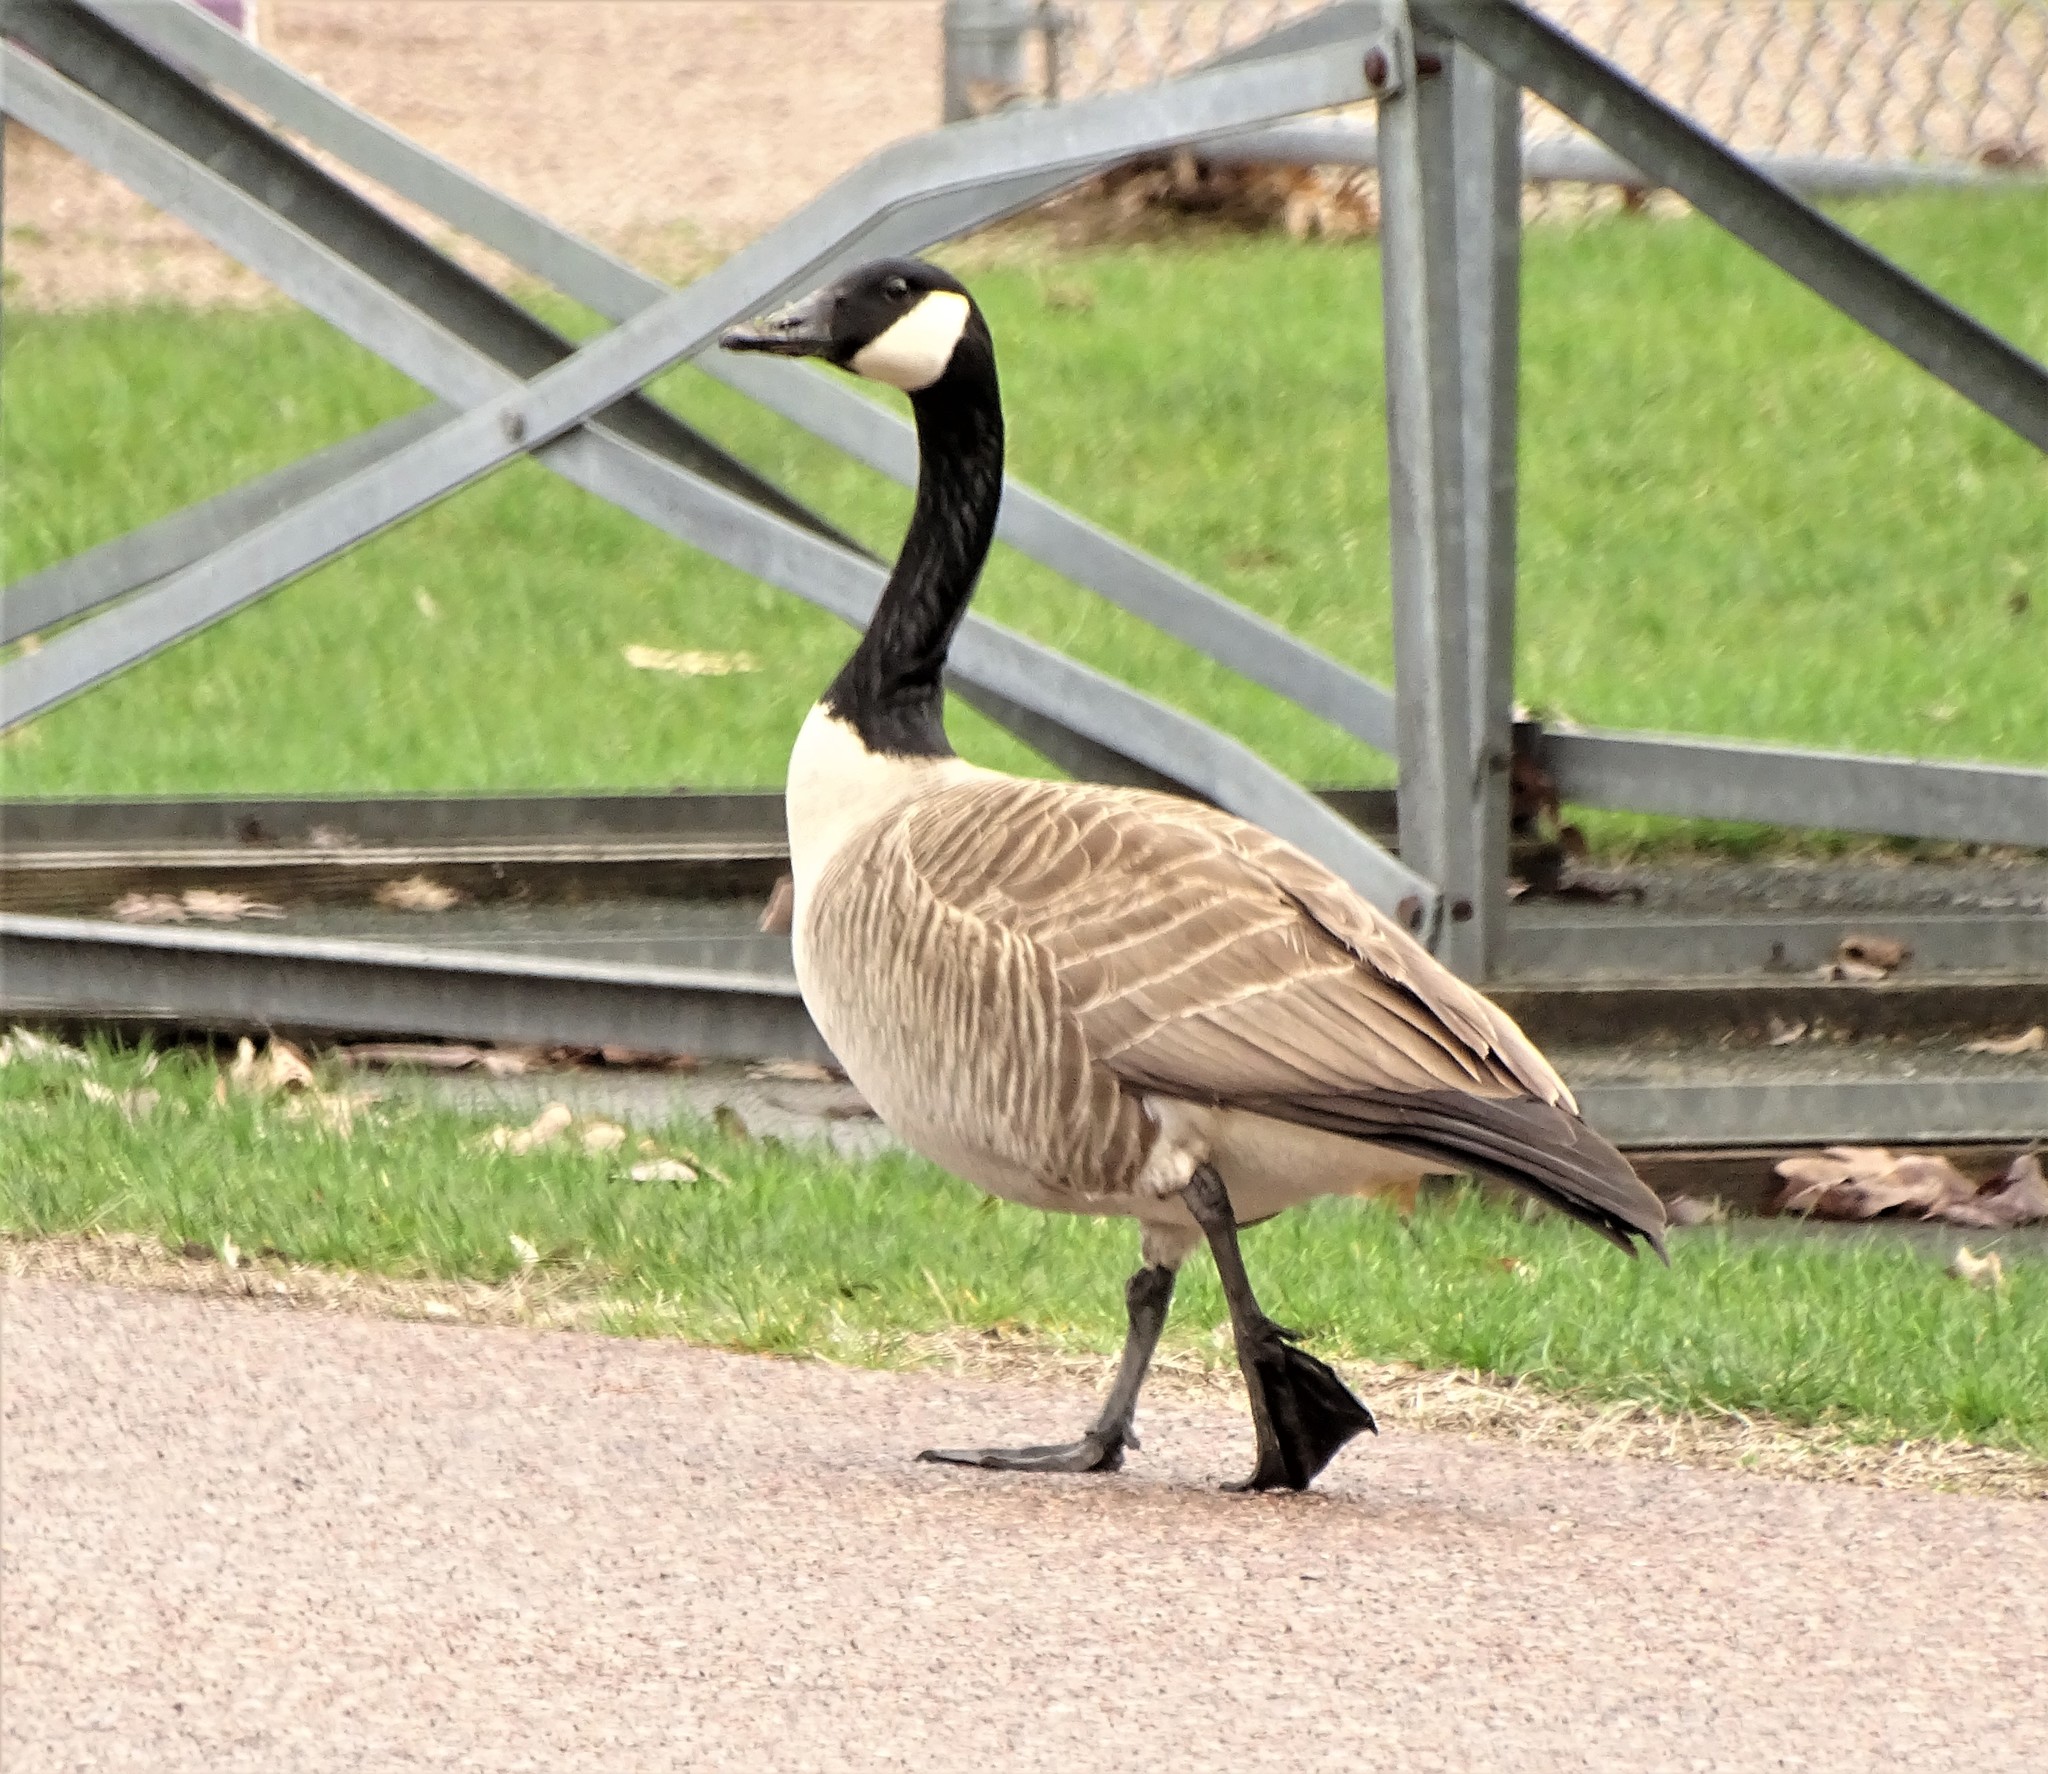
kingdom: Animalia
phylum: Chordata
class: Aves
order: Anseriformes
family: Anatidae
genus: Branta
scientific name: Branta canadensis
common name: Canada goose
